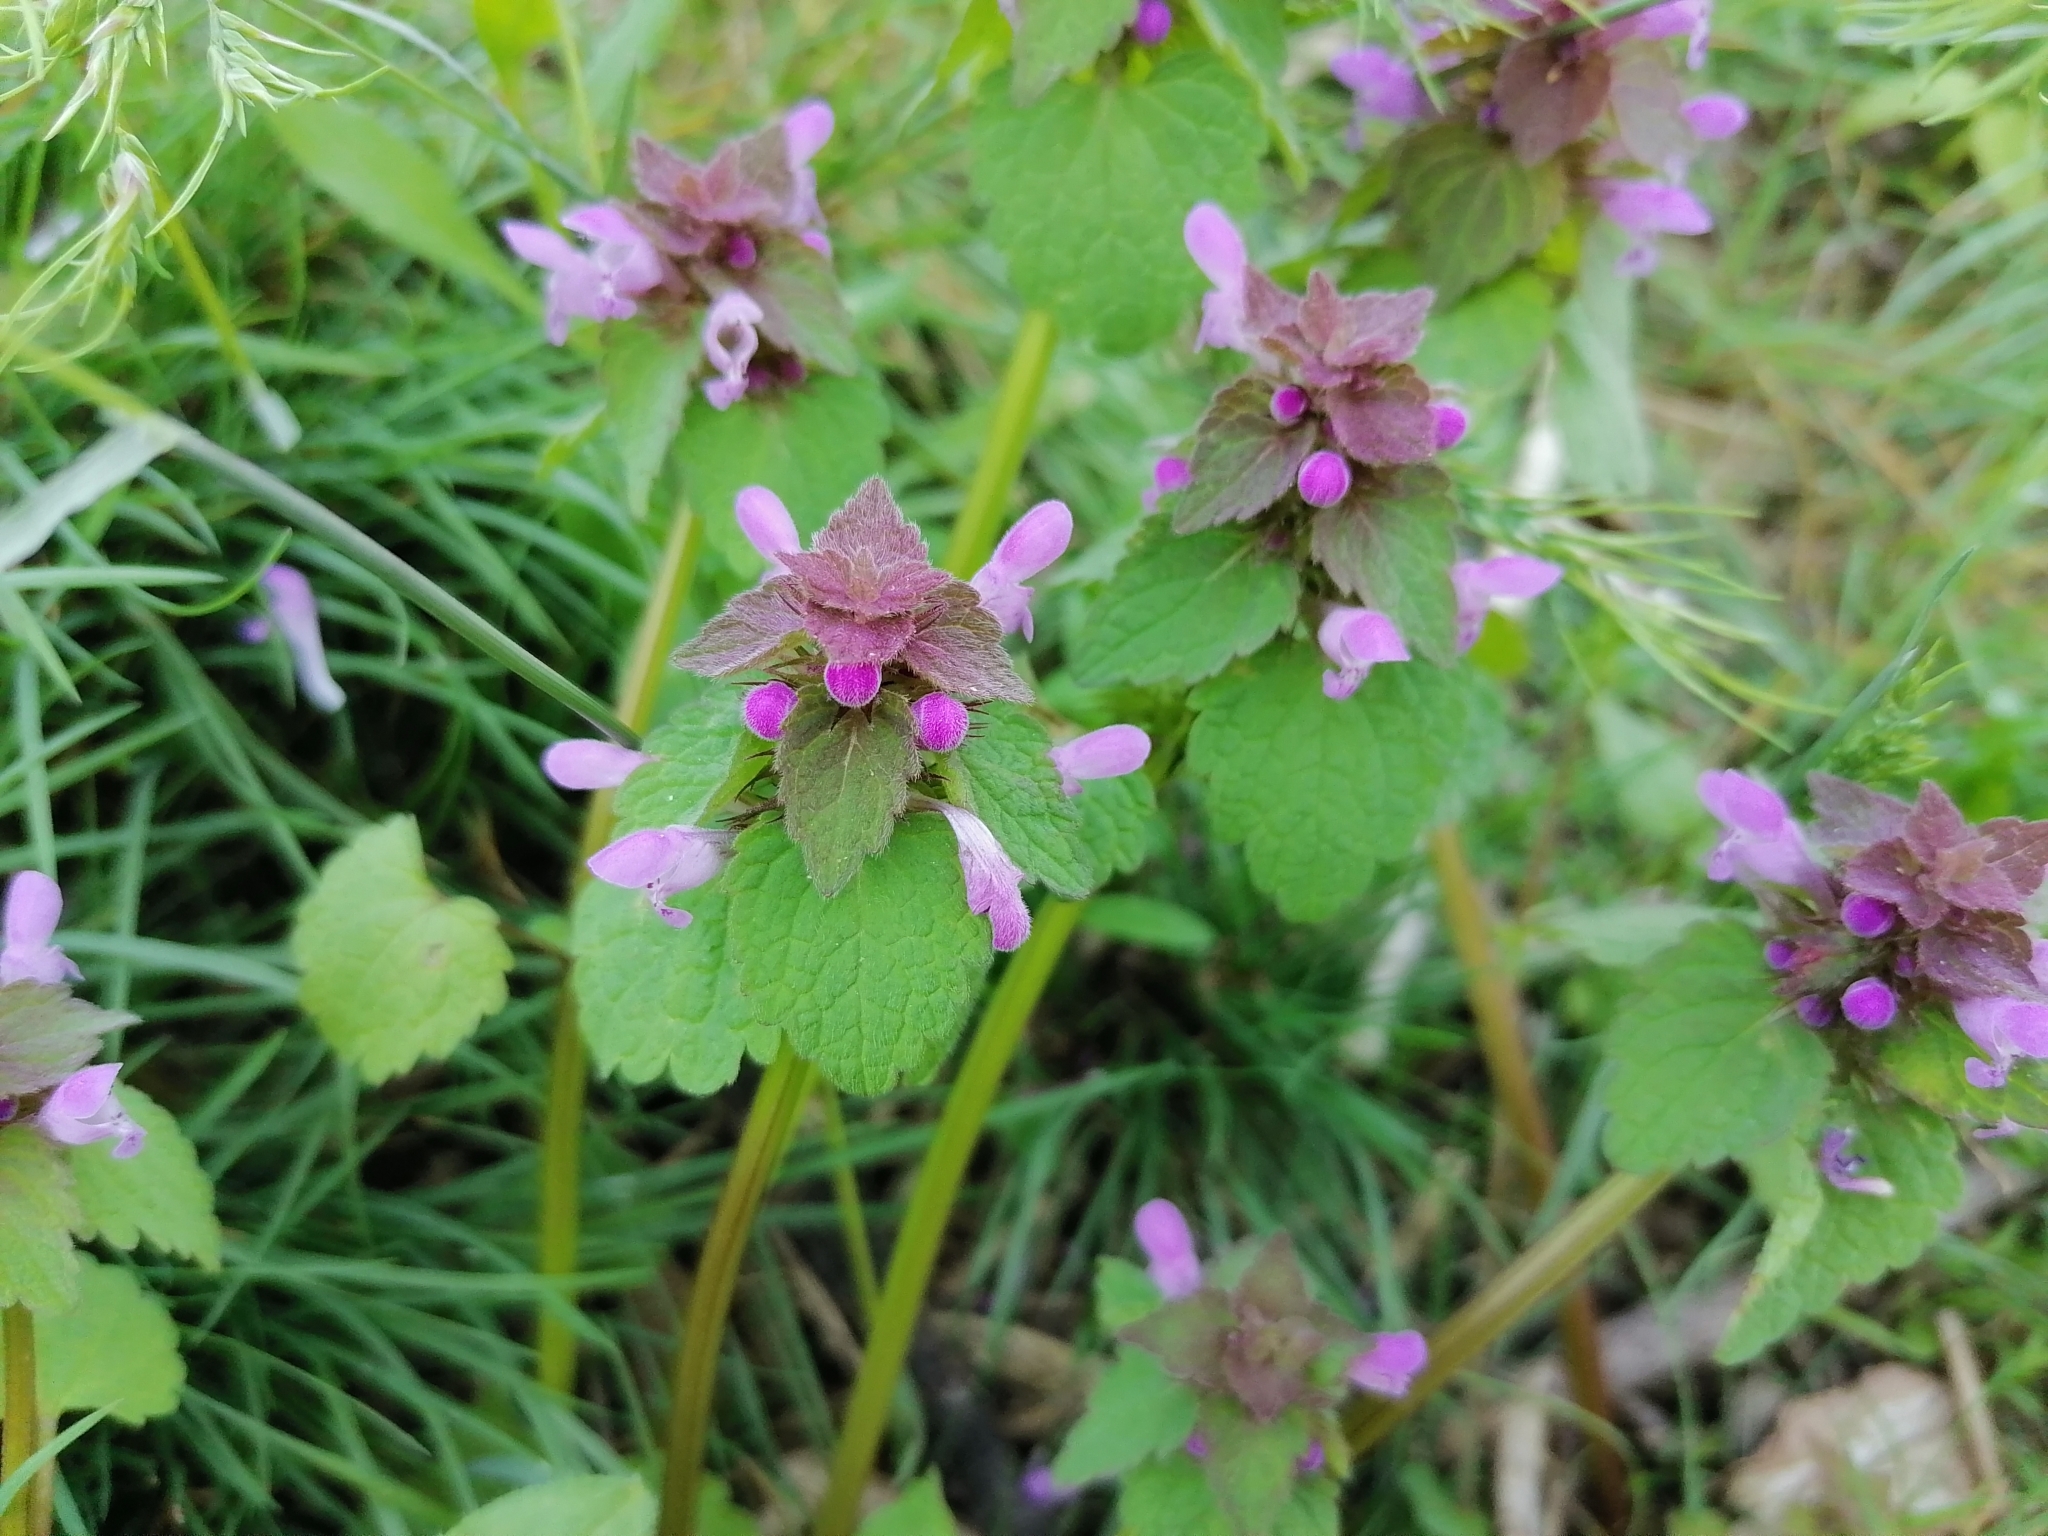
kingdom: Plantae
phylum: Tracheophyta
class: Magnoliopsida
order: Lamiales
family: Lamiaceae
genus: Lamium
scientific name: Lamium purpureum
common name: Red dead-nettle
